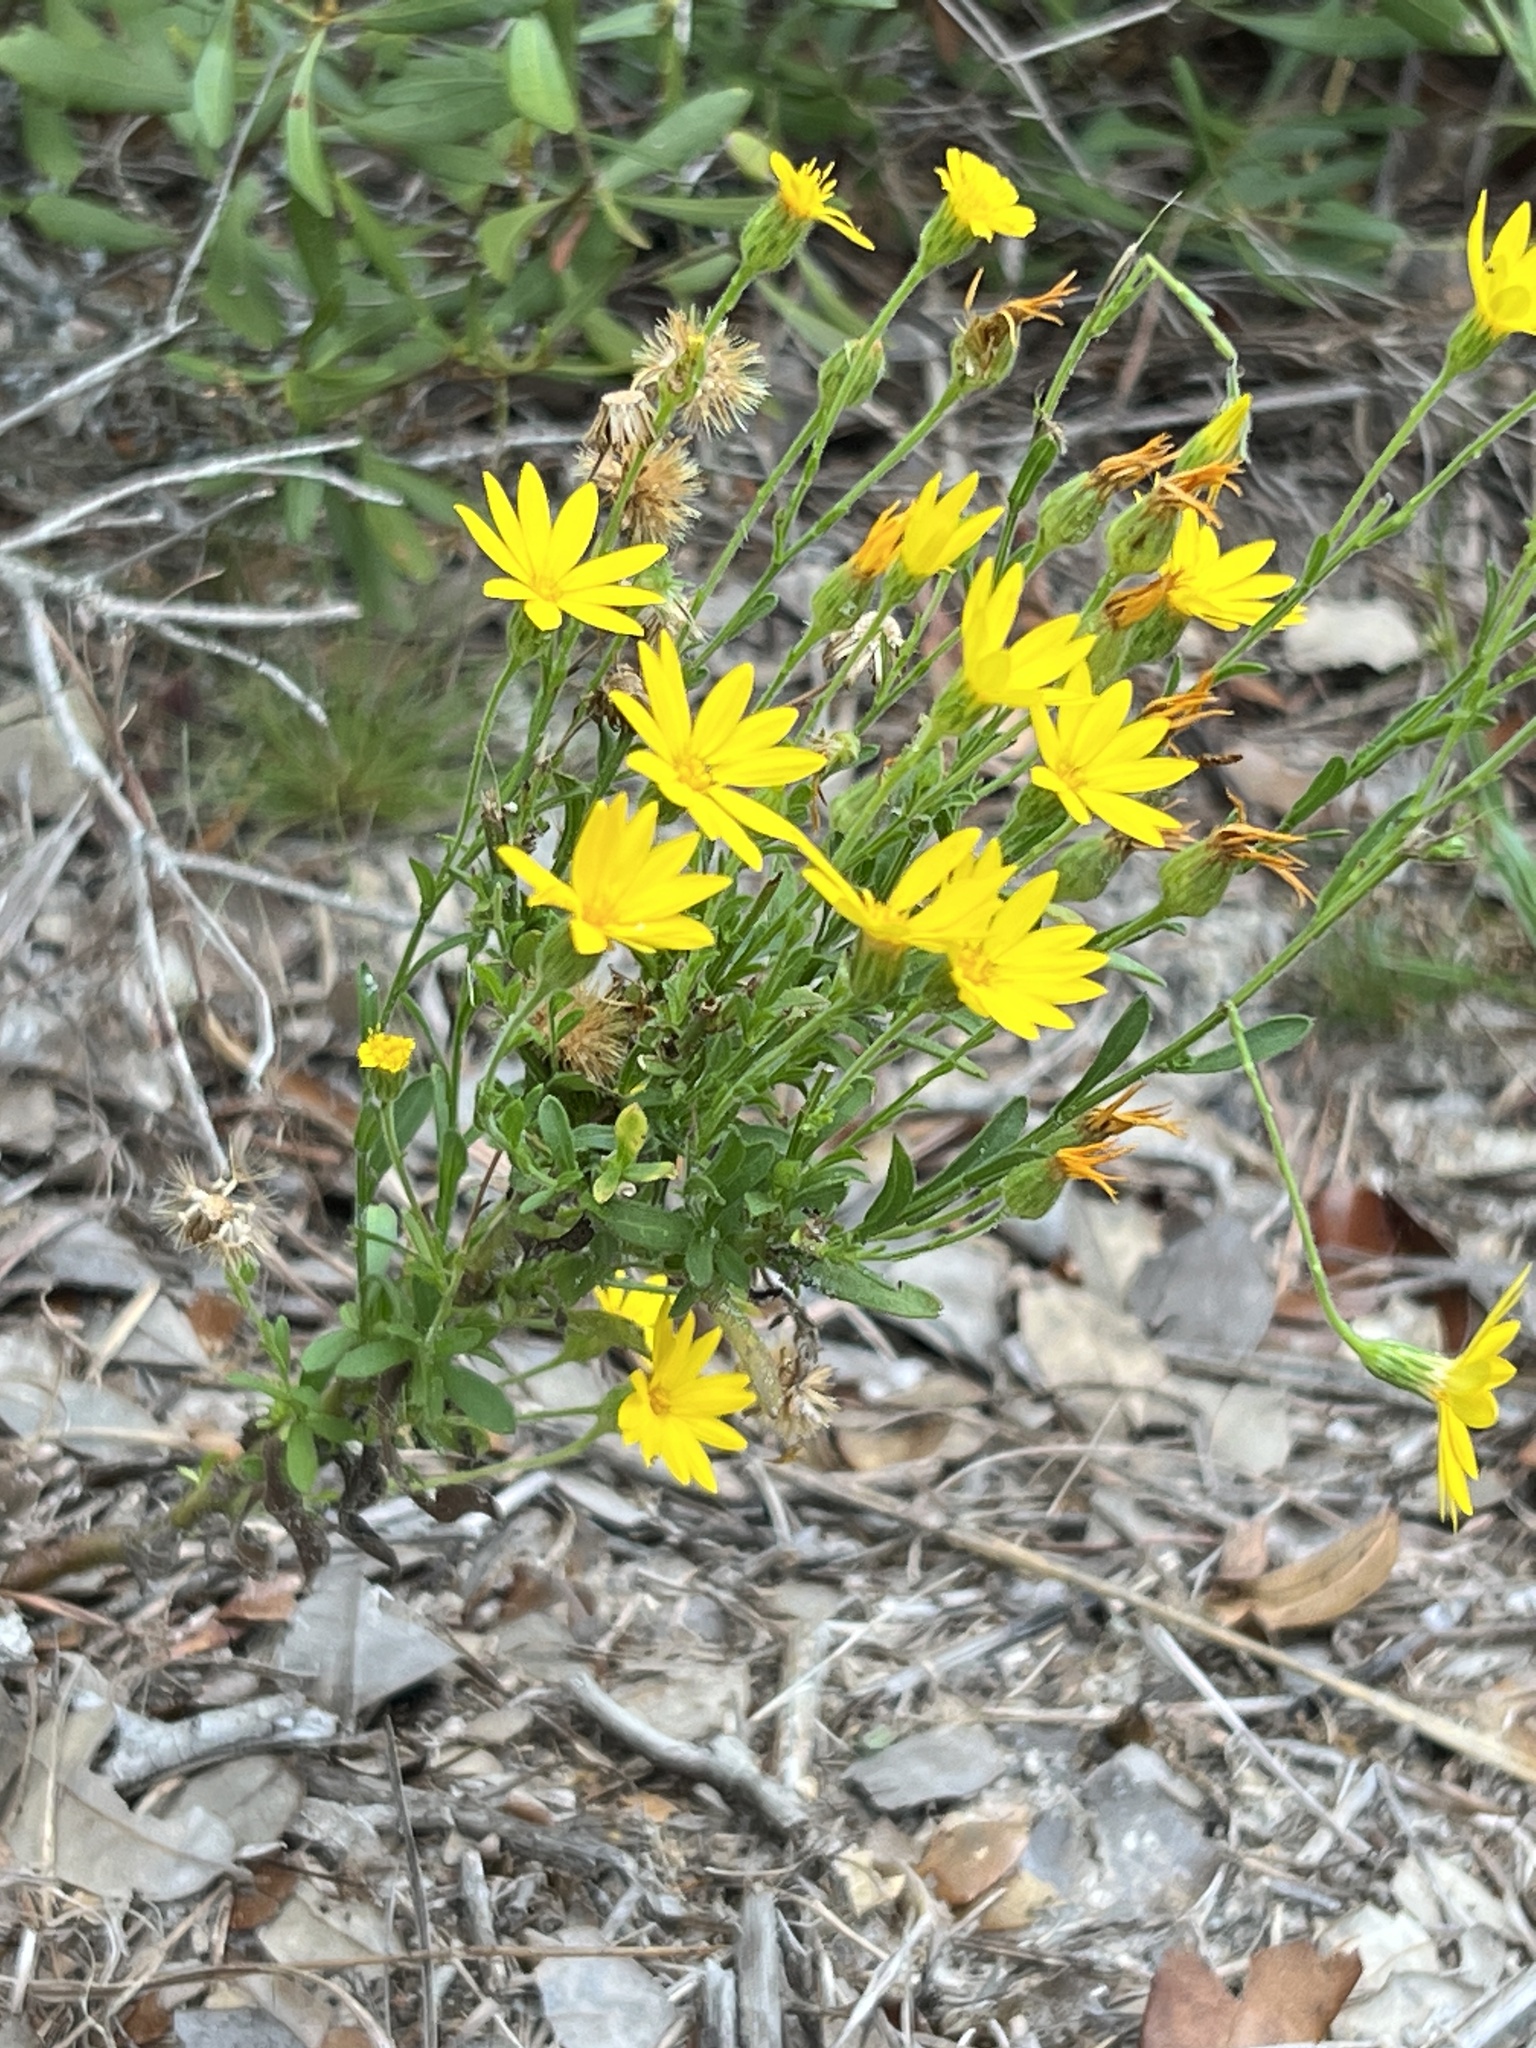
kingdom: Plantae
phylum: Tracheophyta
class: Magnoliopsida
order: Asterales
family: Asteraceae
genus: Bradburia
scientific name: Bradburia pilosa
